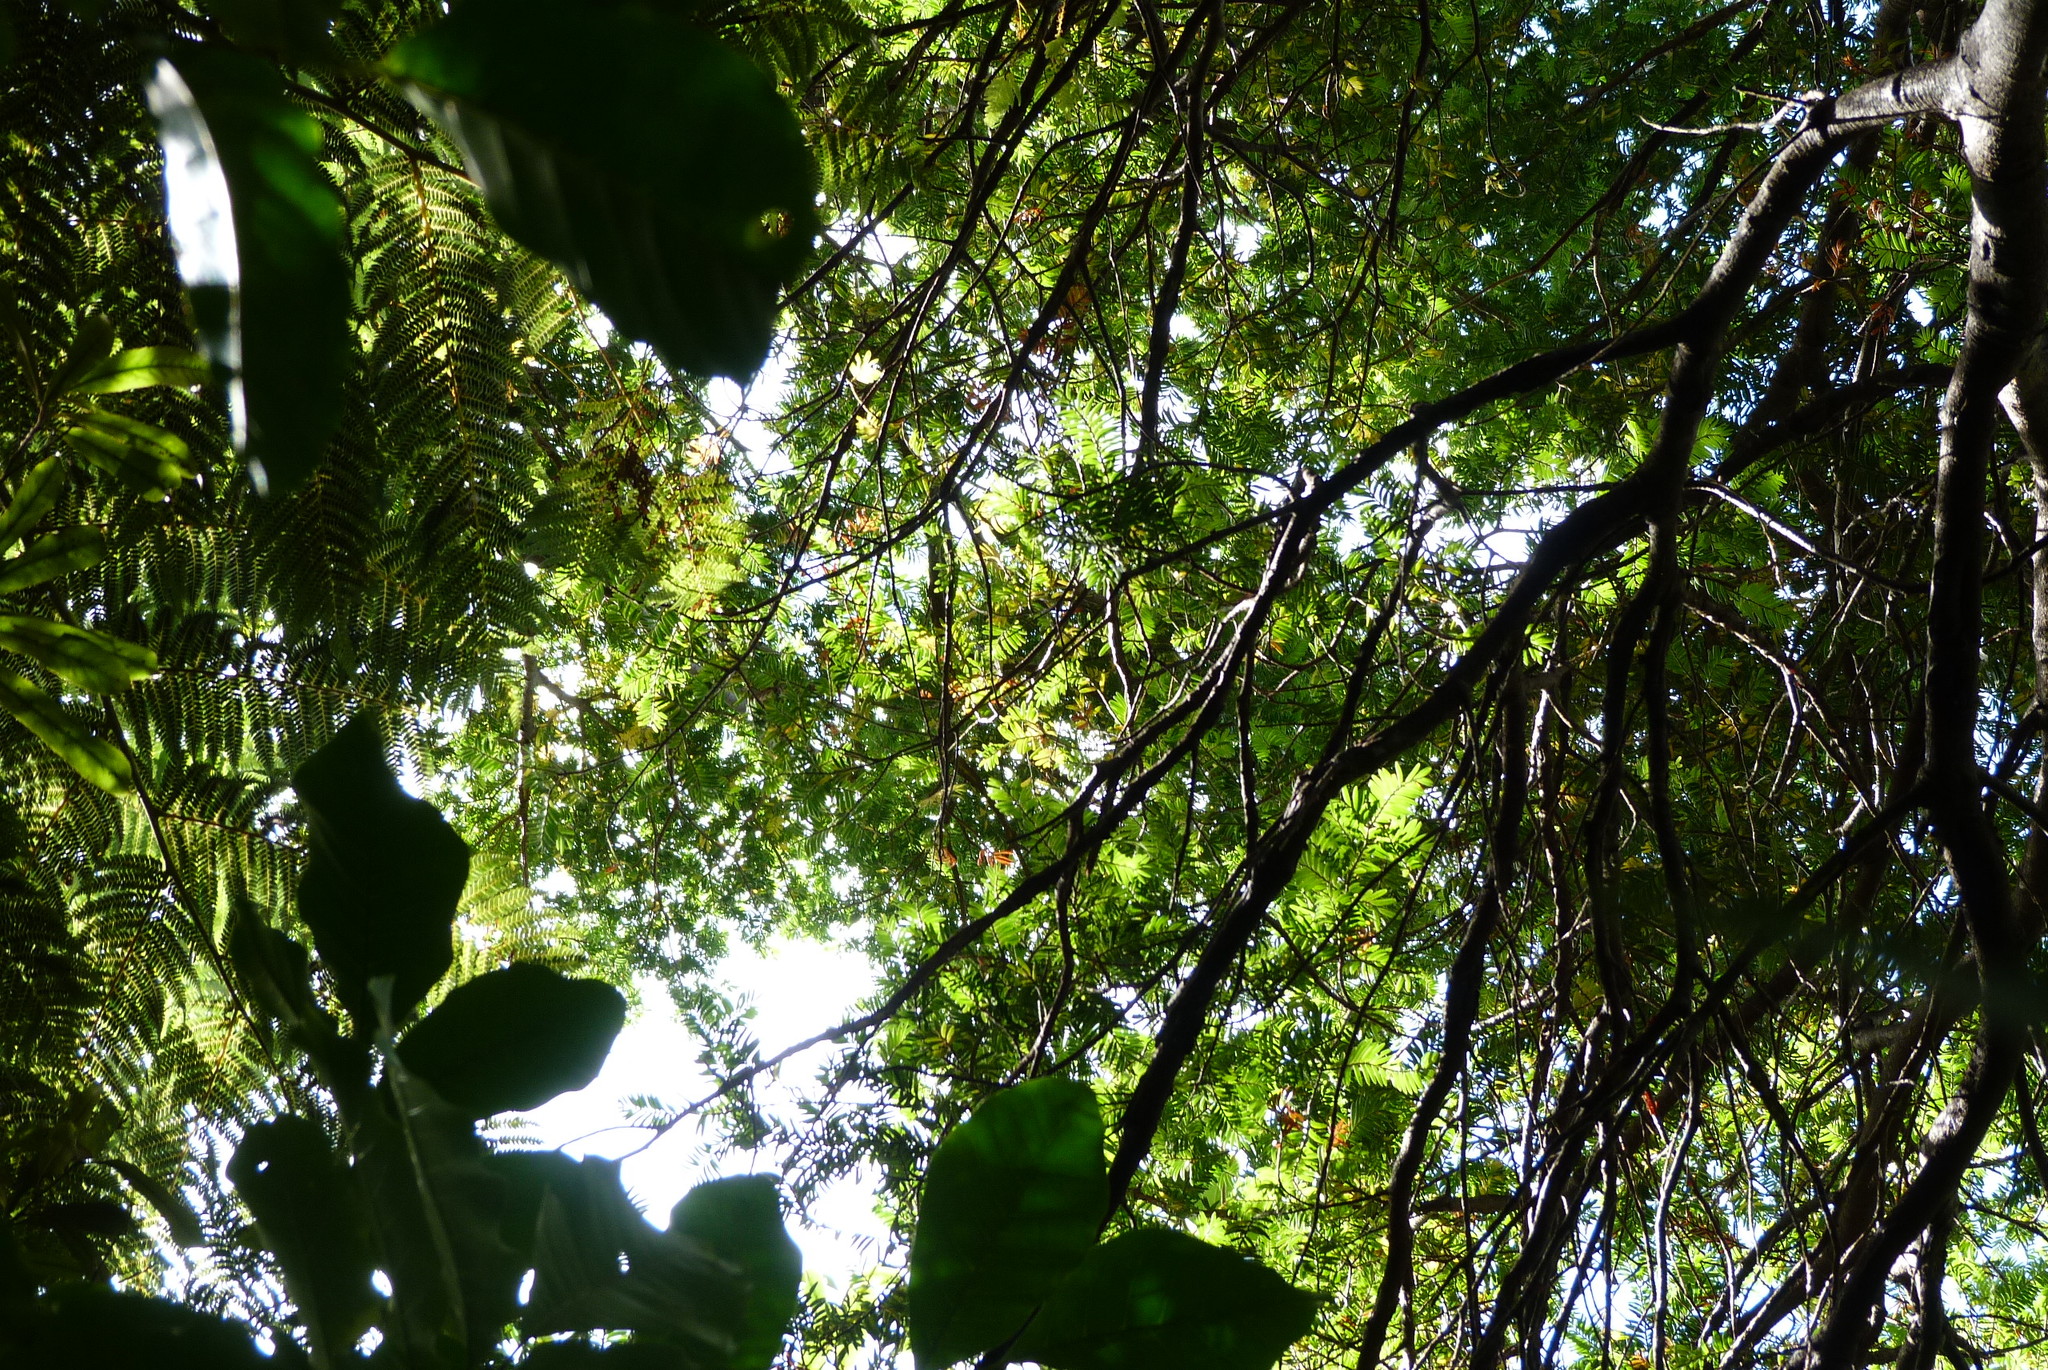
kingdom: Plantae
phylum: Tracheophyta
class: Pinopsida
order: Pinales
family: Podocarpaceae
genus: Prumnopitys
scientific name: Prumnopitys ferruginea
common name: Brown pine
